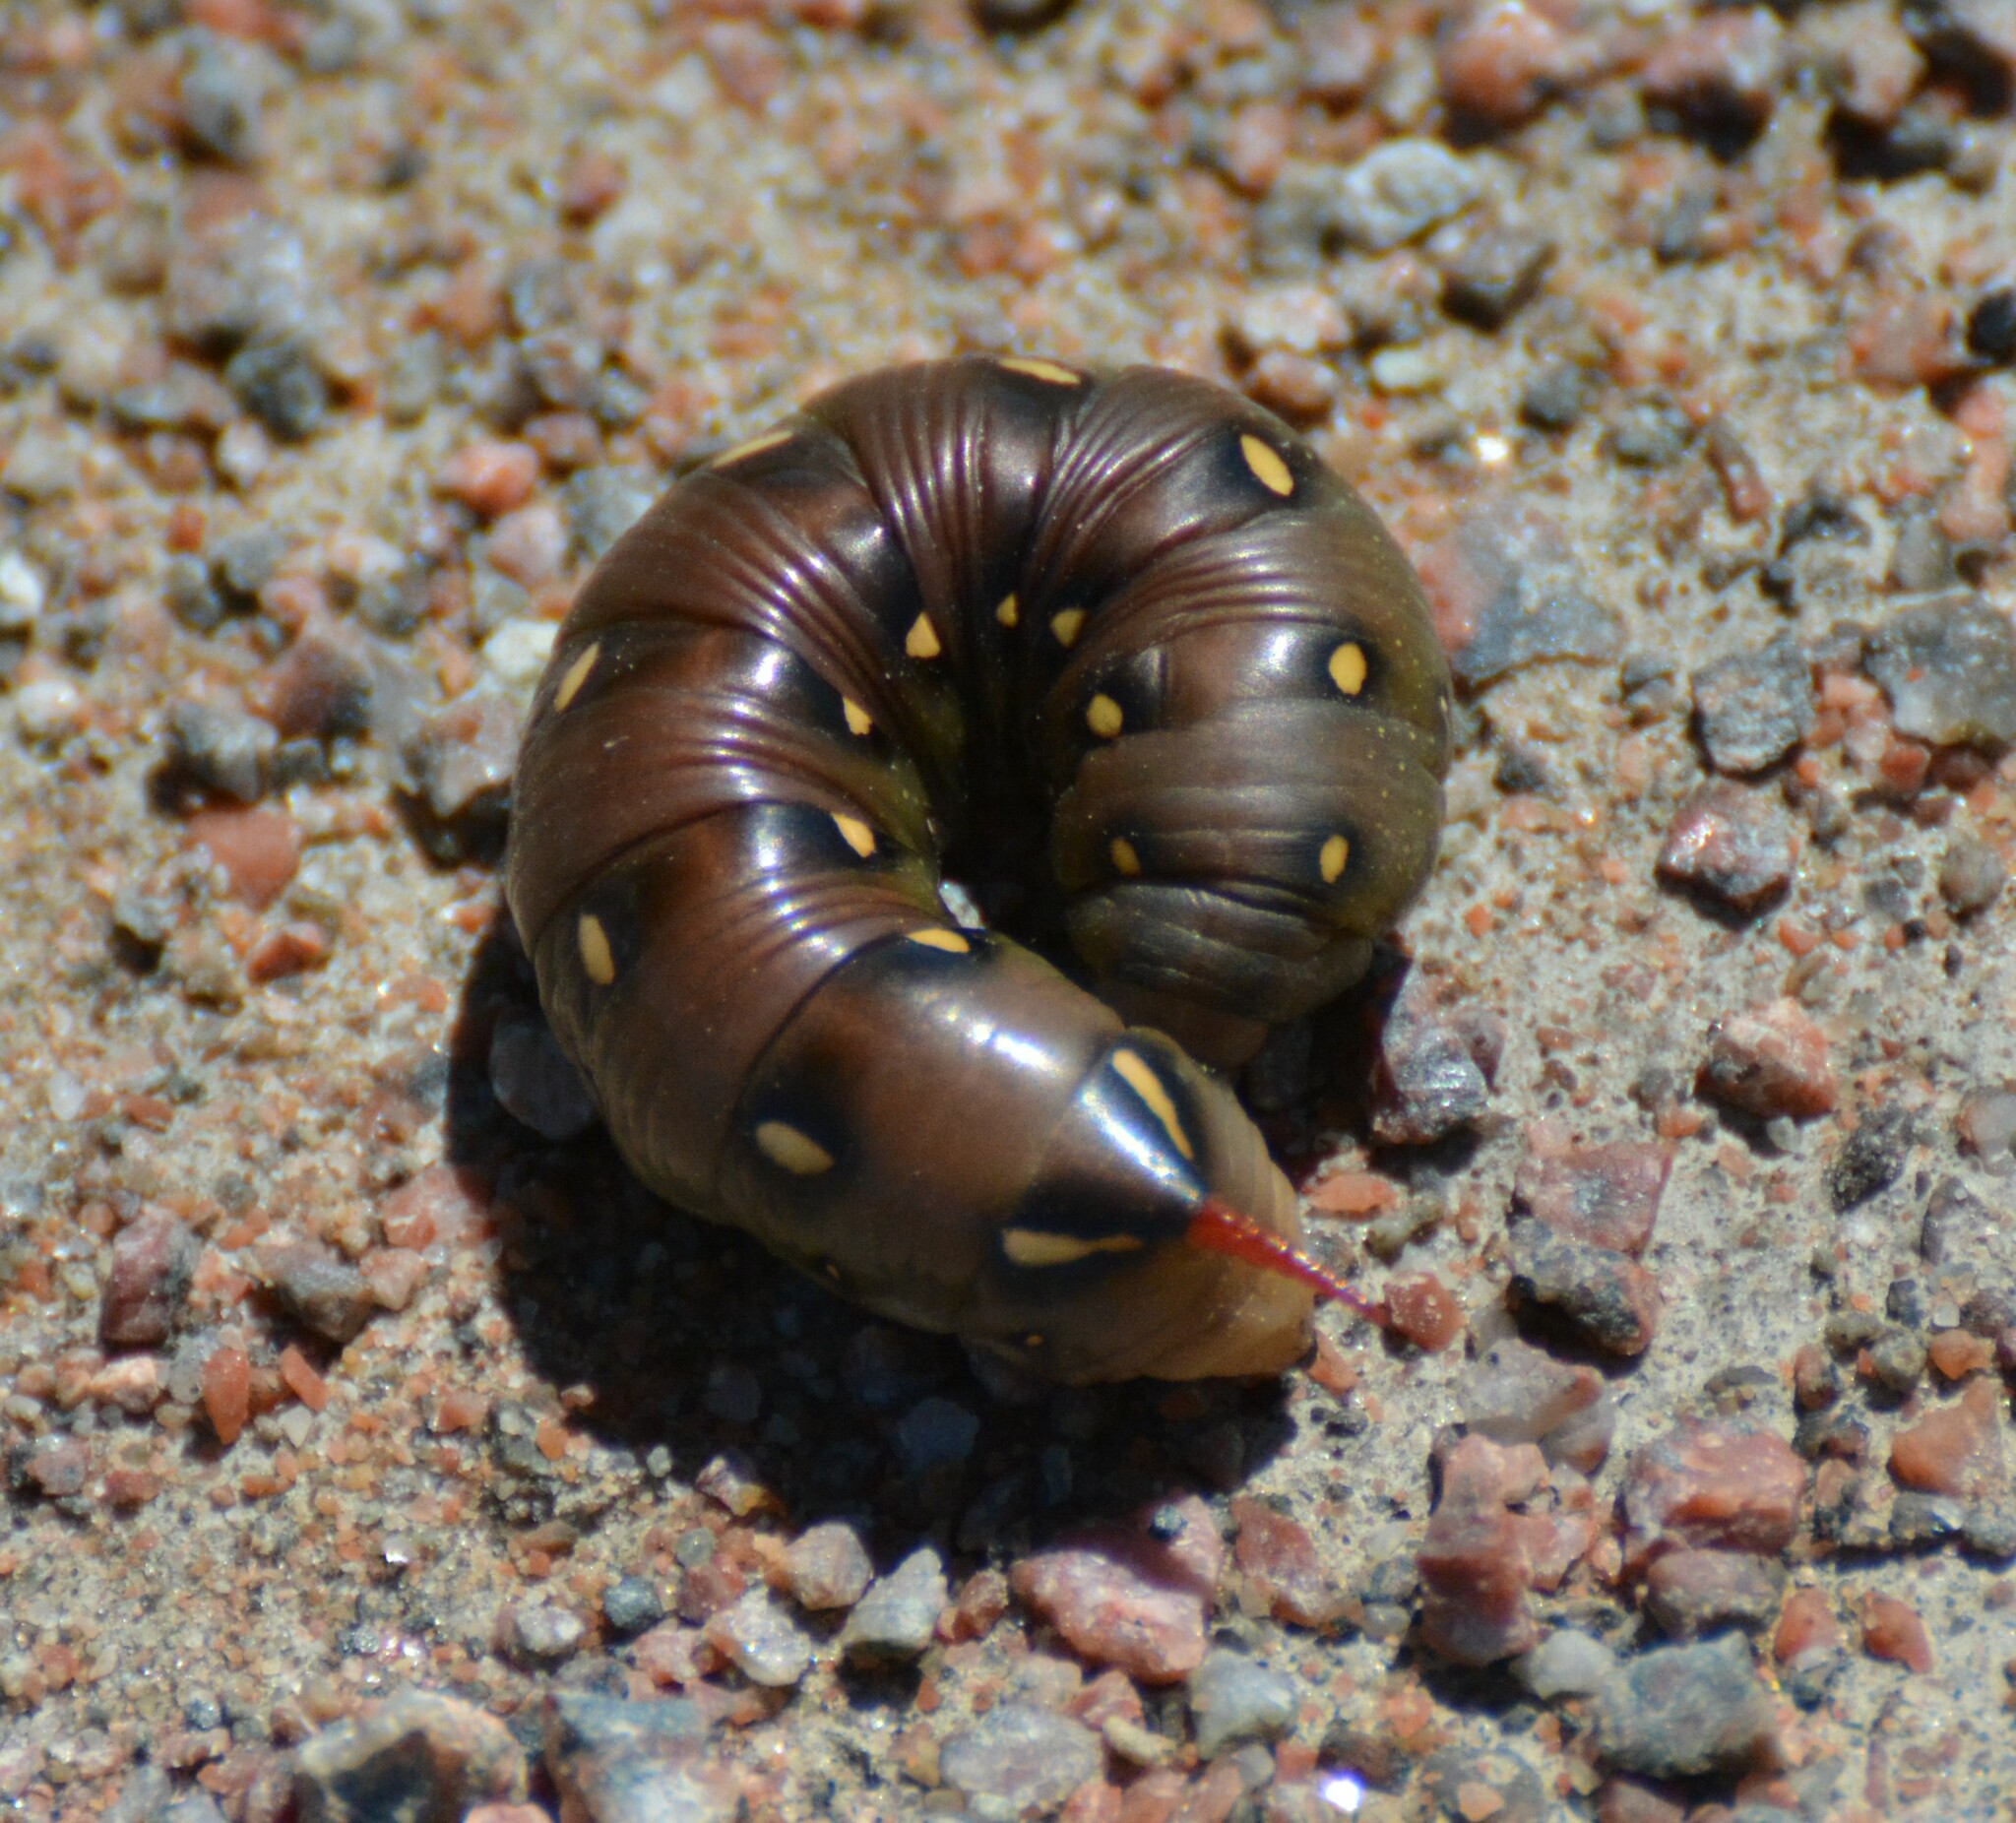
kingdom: Animalia
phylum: Arthropoda
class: Insecta
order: Lepidoptera
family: Sphingidae
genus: Hyles
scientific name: Hyles gallii
